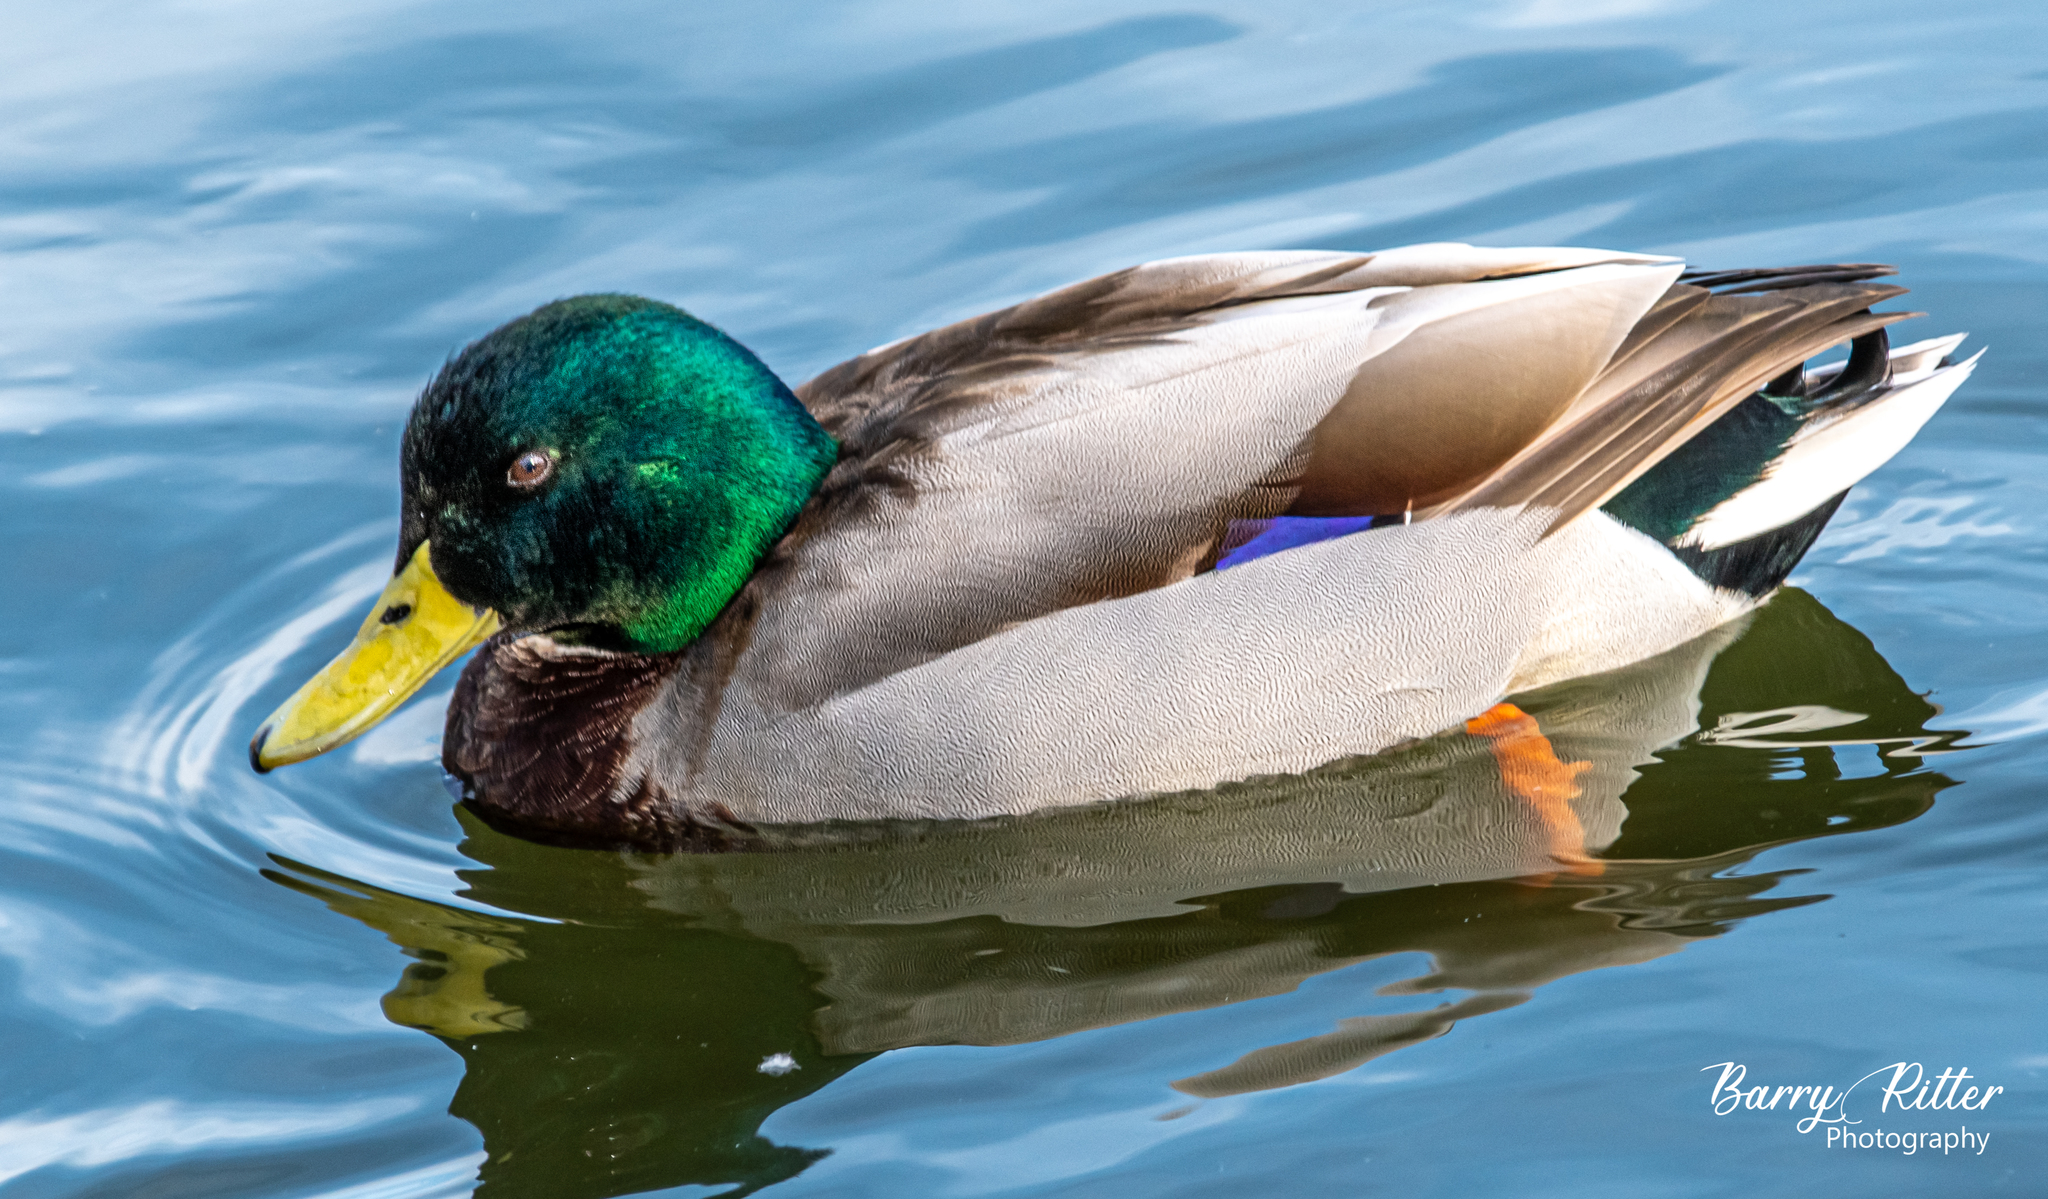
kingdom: Animalia
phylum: Chordata
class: Aves
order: Anseriformes
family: Anatidae
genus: Anas
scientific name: Anas platyrhynchos
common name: Mallard
